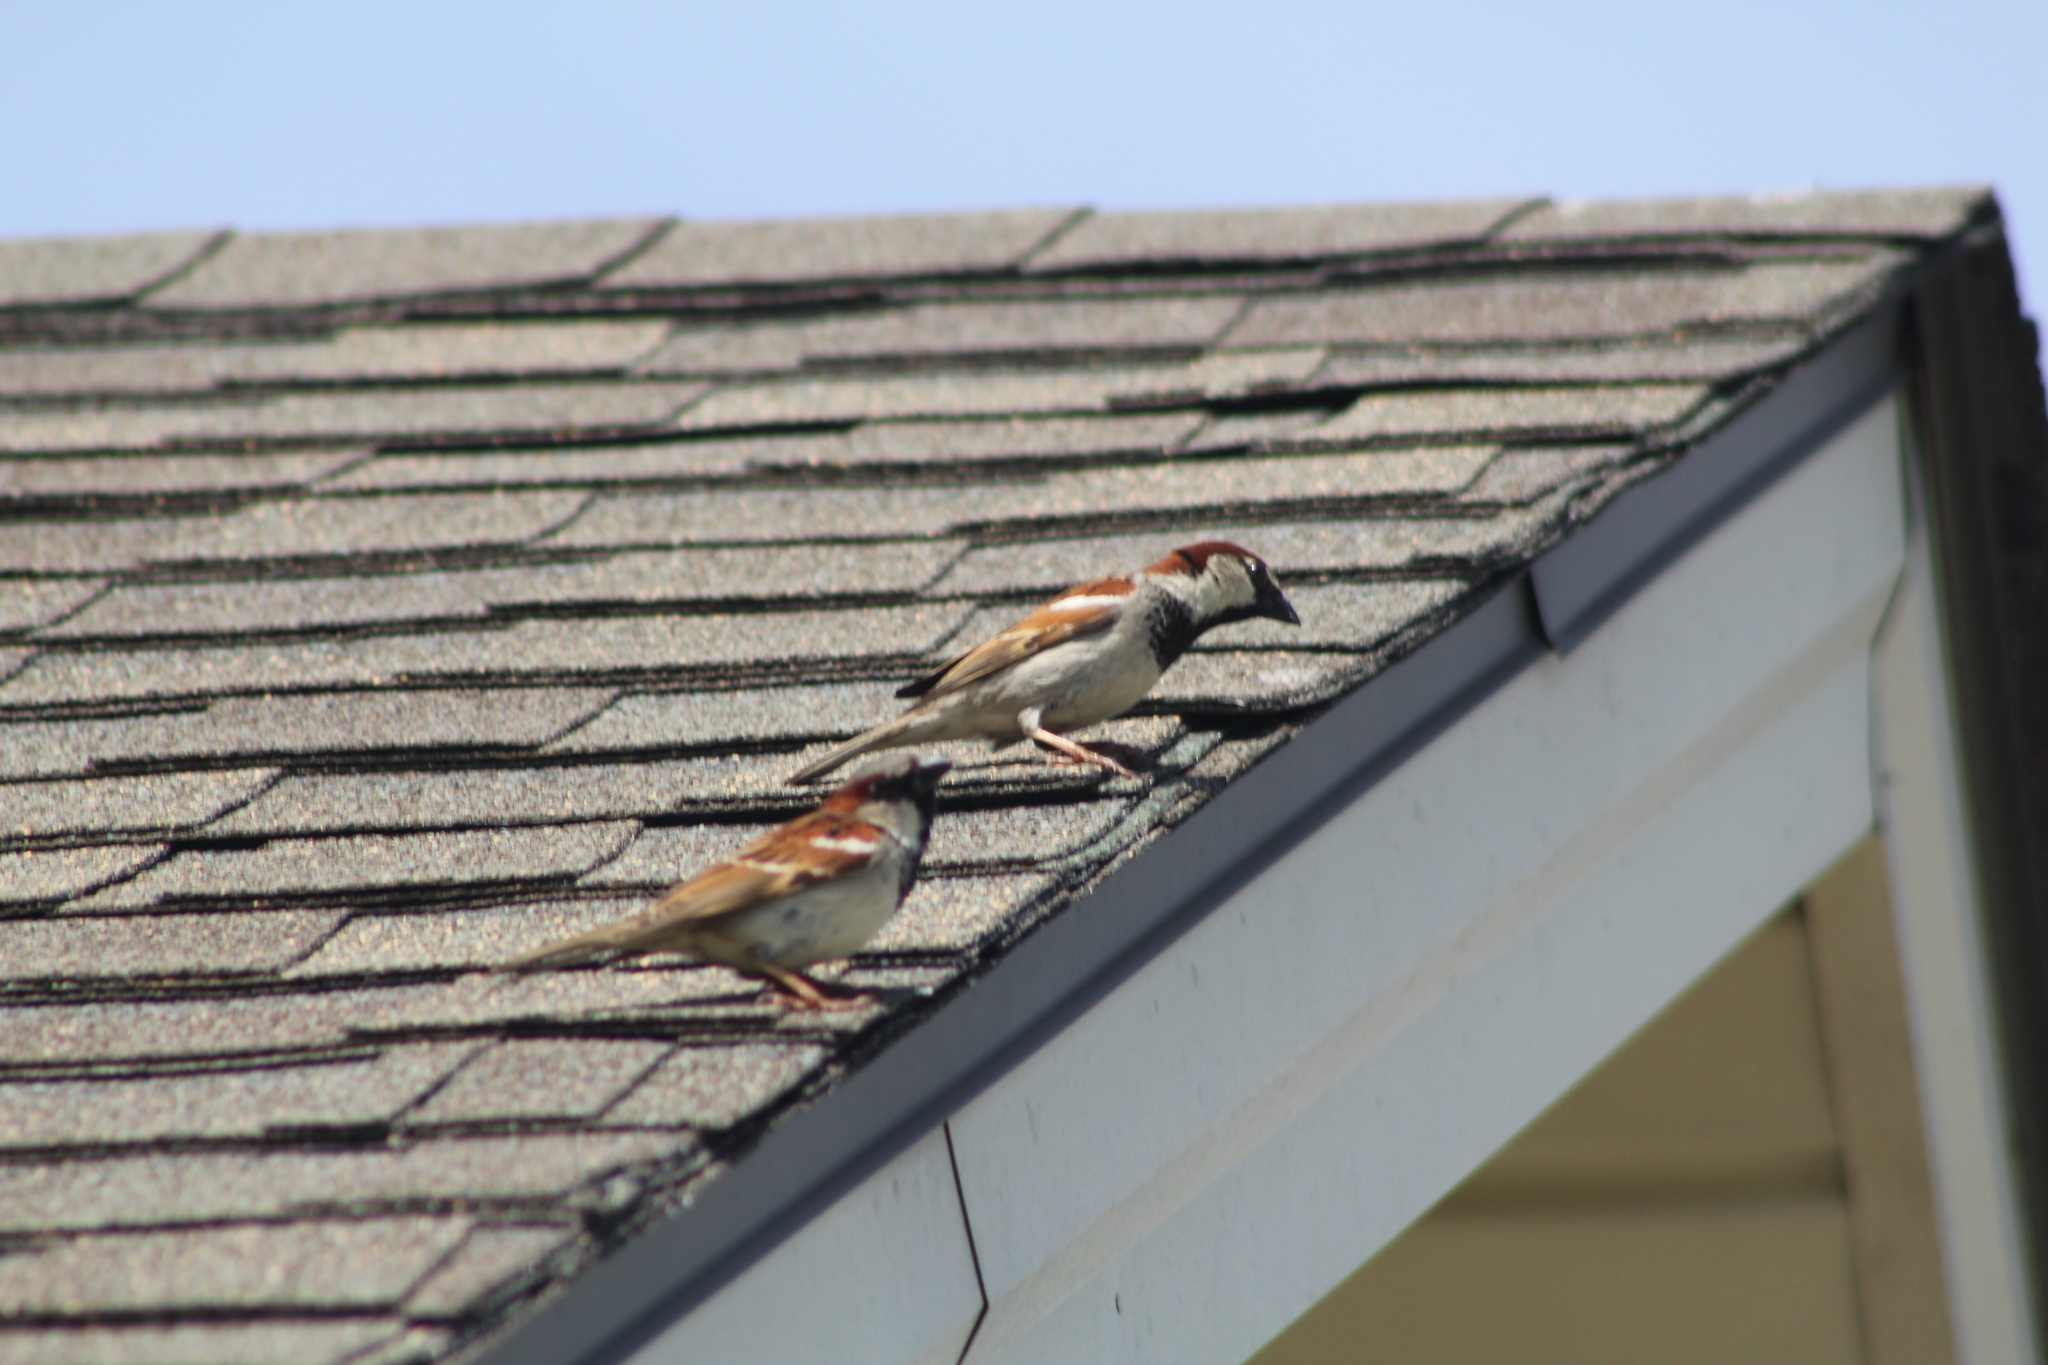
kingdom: Animalia
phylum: Chordata
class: Aves
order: Passeriformes
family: Passeridae
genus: Passer
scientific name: Passer domesticus
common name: House sparrow
